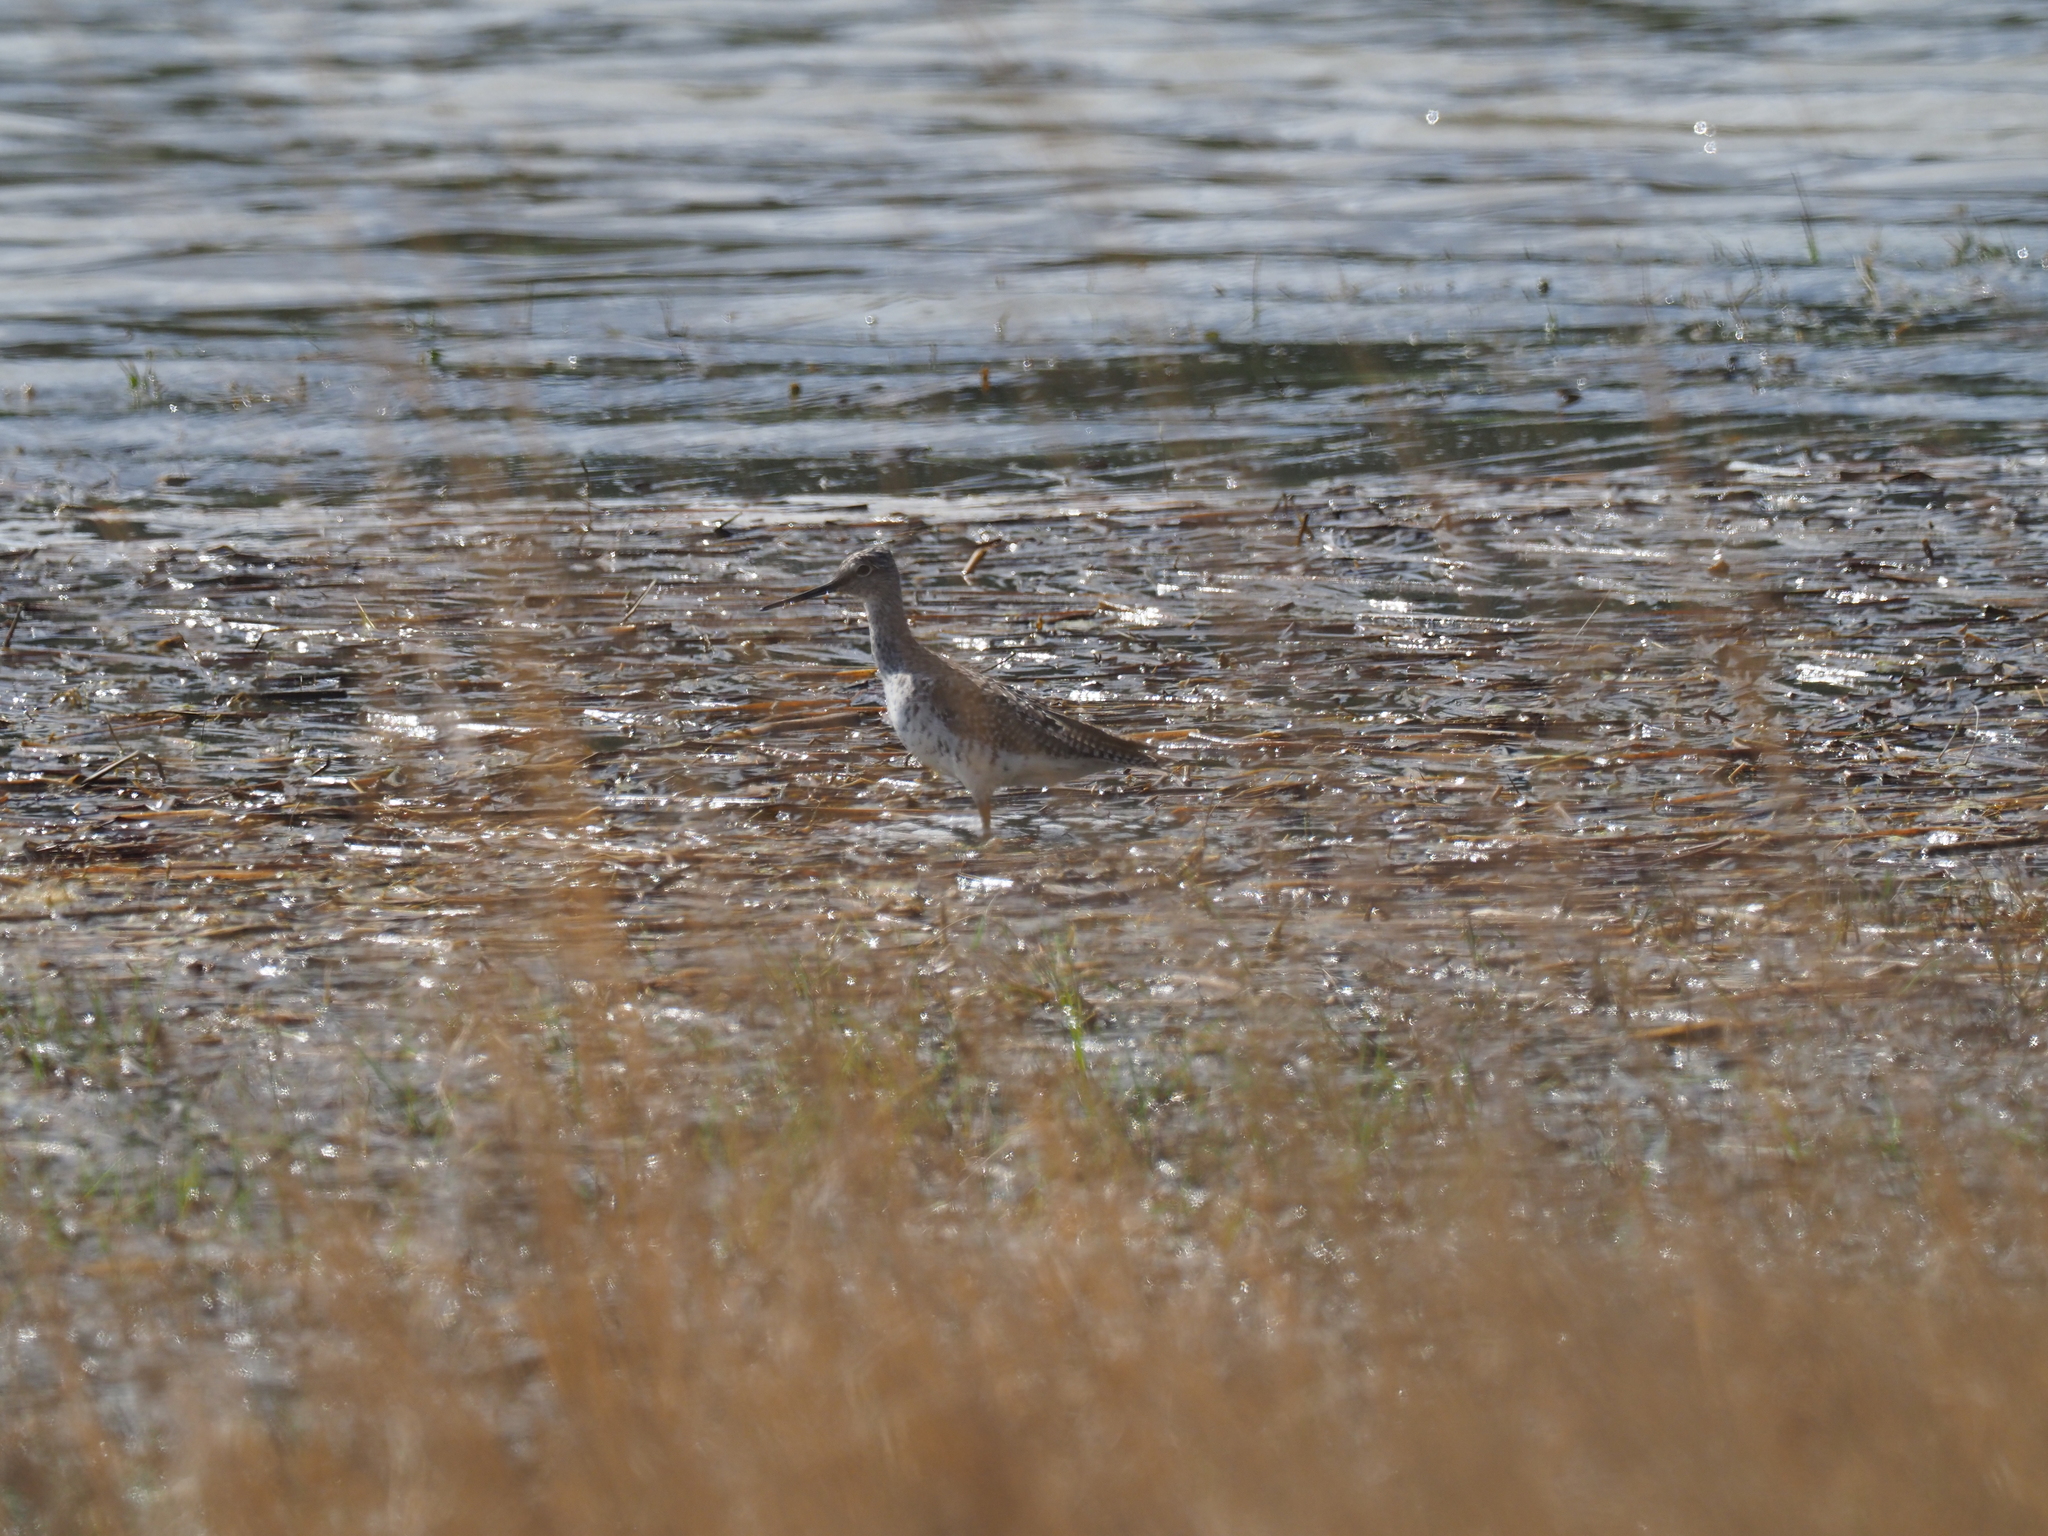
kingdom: Animalia
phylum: Chordata
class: Aves
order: Charadriiformes
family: Scolopacidae
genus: Tringa
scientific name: Tringa melanoleuca
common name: Greater yellowlegs
